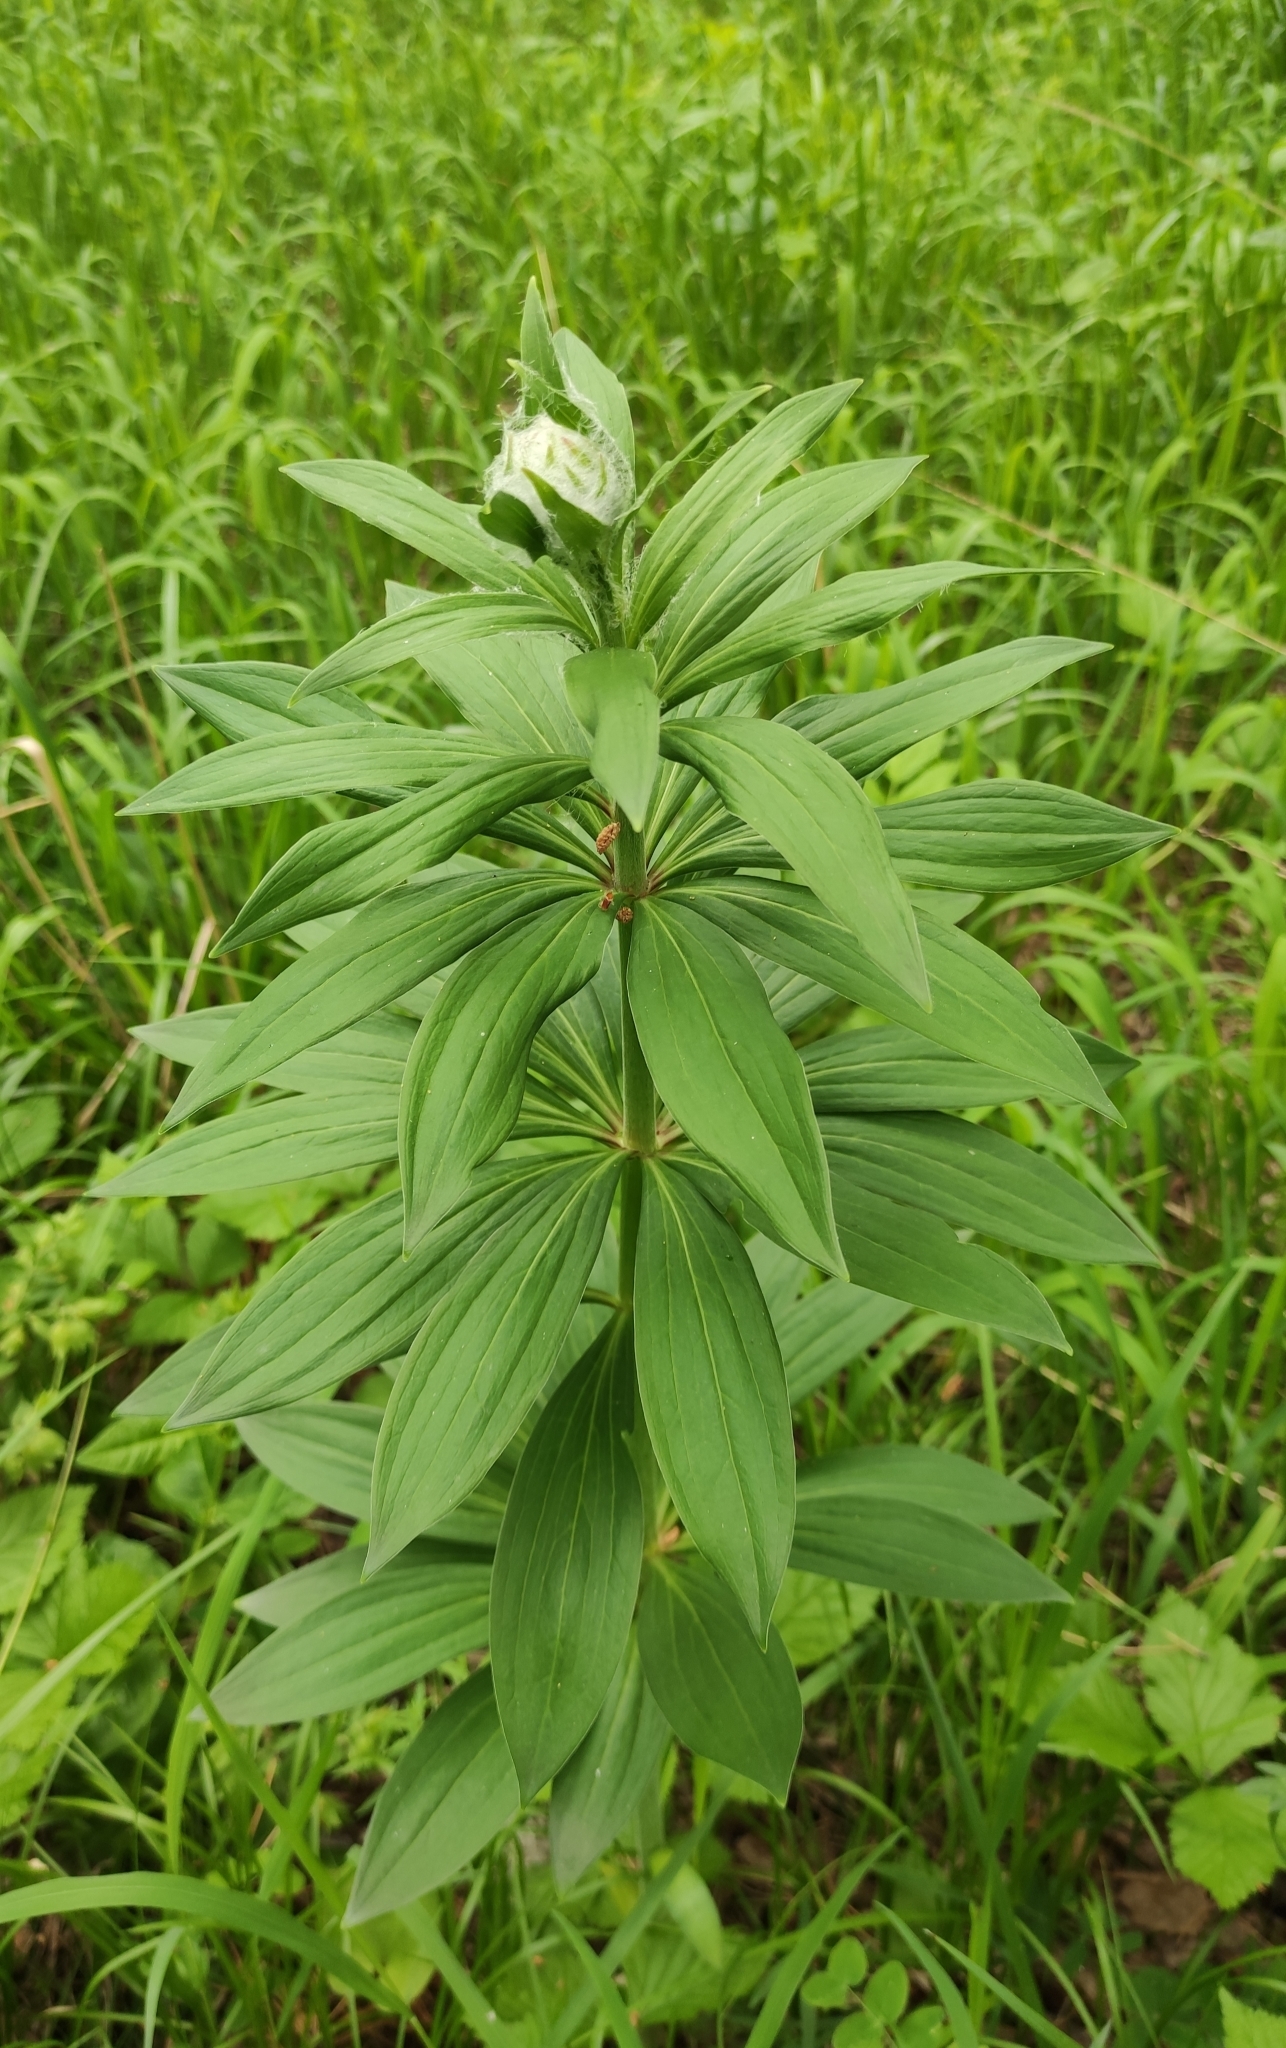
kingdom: Plantae
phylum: Tracheophyta
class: Liliopsida
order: Liliales
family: Liliaceae
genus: Lilium
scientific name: Lilium martagon
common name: Martagon lily
